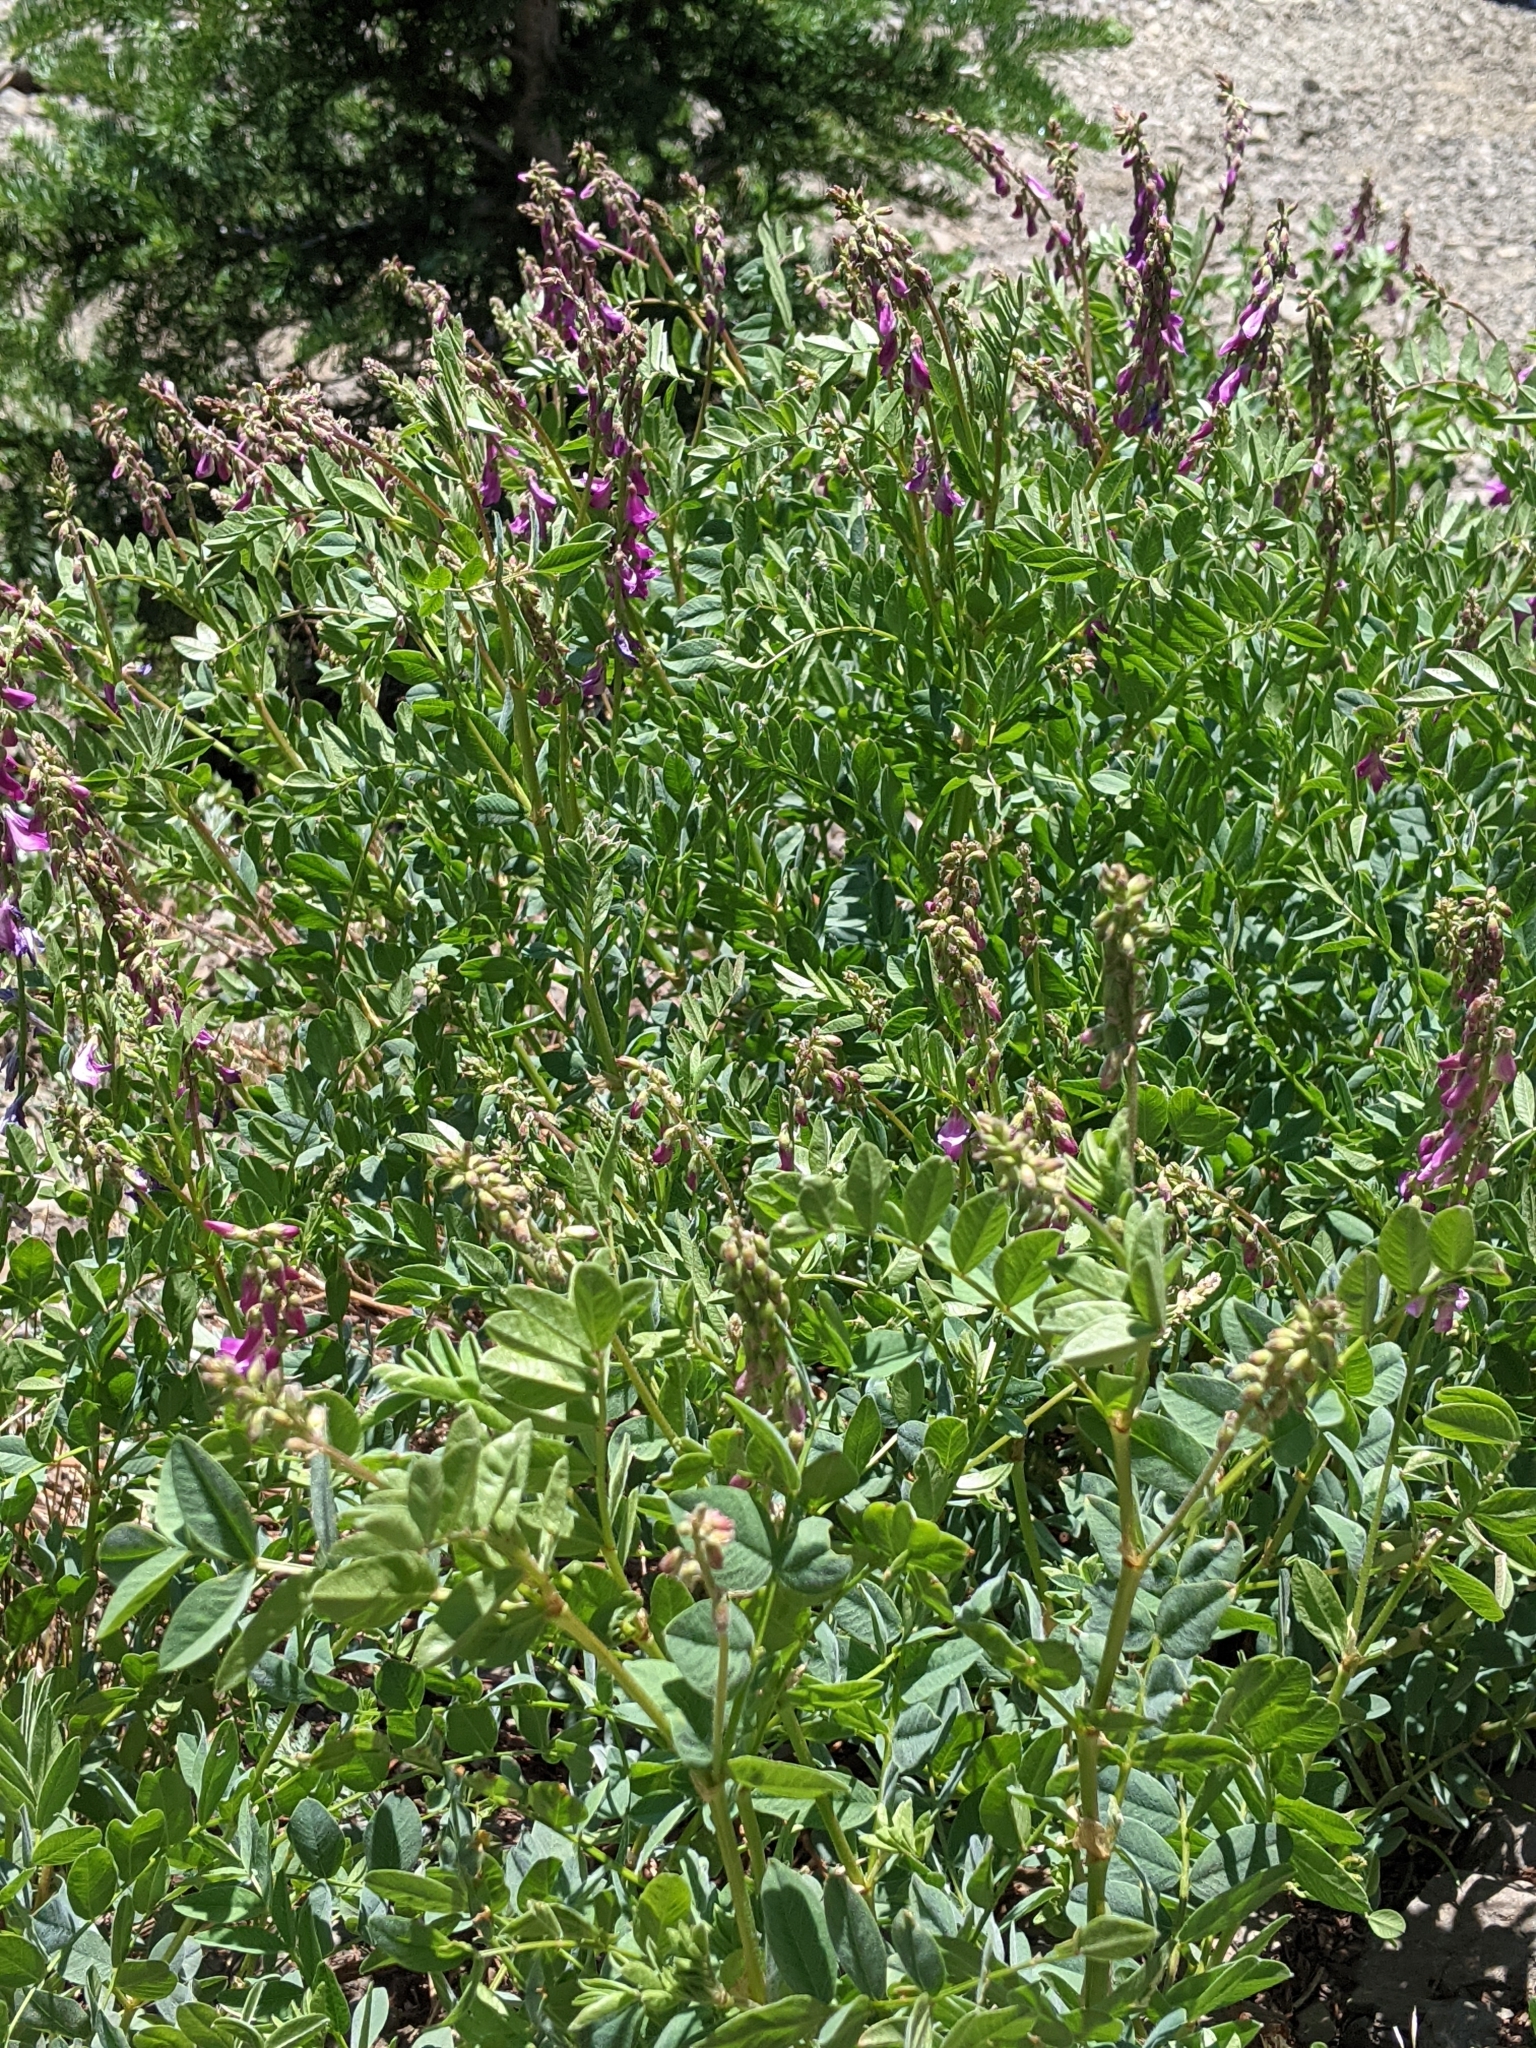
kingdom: Plantae
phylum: Tracheophyta
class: Magnoliopsida
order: Fabales
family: Fabaceae
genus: Hedysarum
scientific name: Hedysarum occidentale
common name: Western hedysarum
